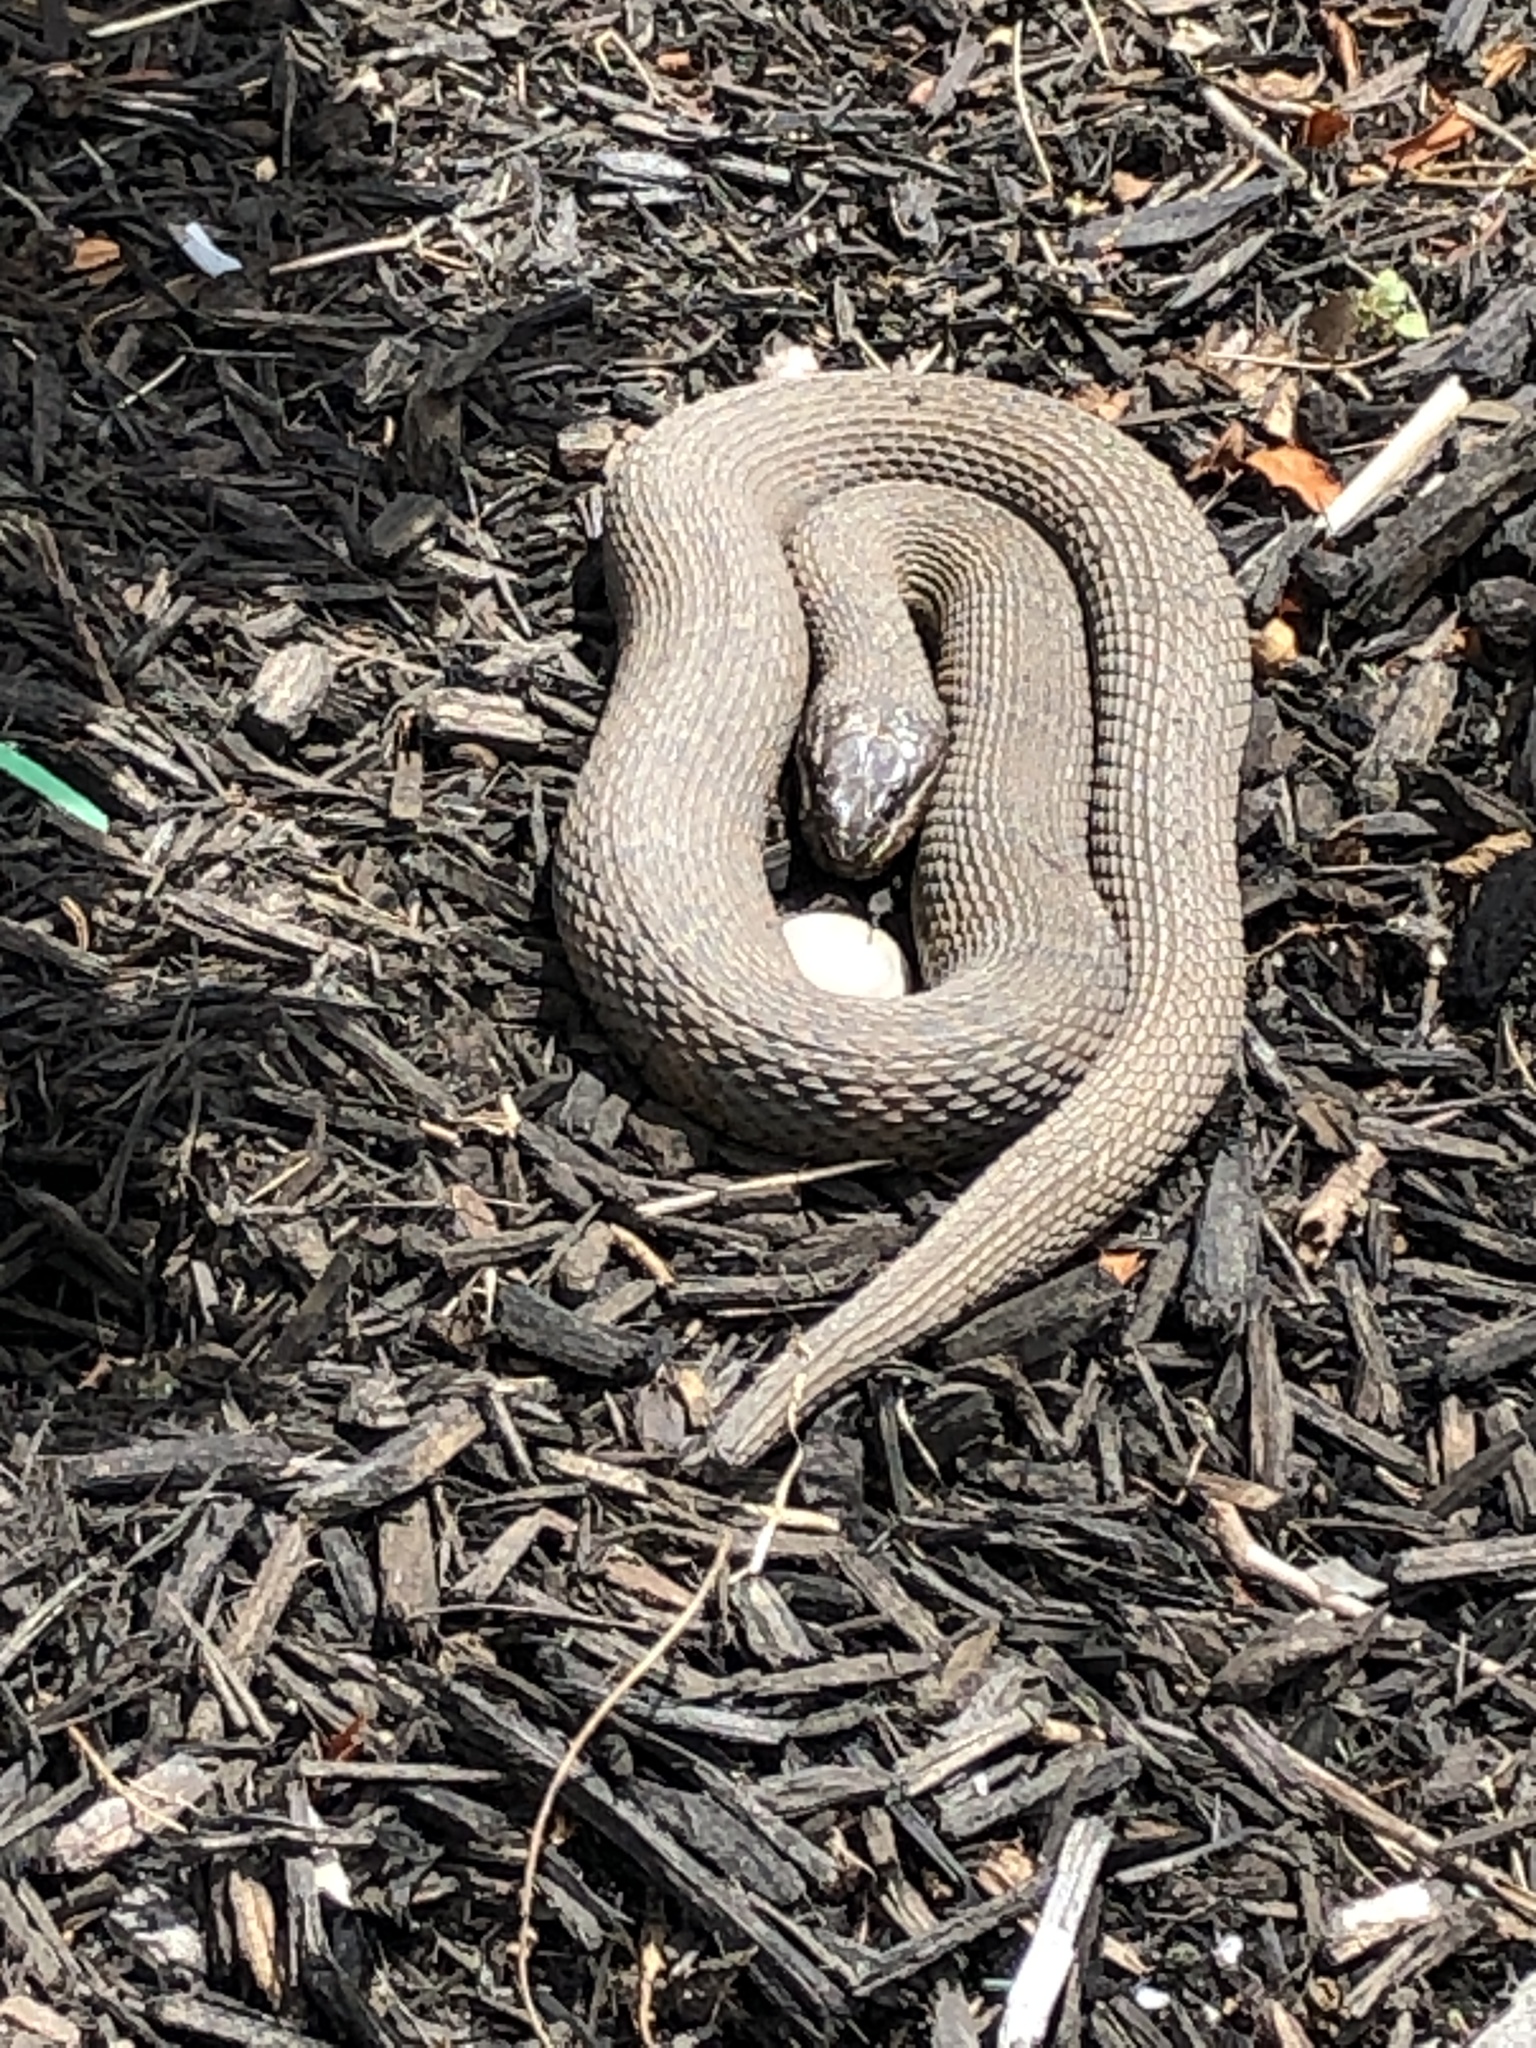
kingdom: Animalia
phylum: Chordata
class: Squamata
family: Colubridae
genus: Nerodia
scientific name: Nerodia sipedon
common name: Northern water snake
